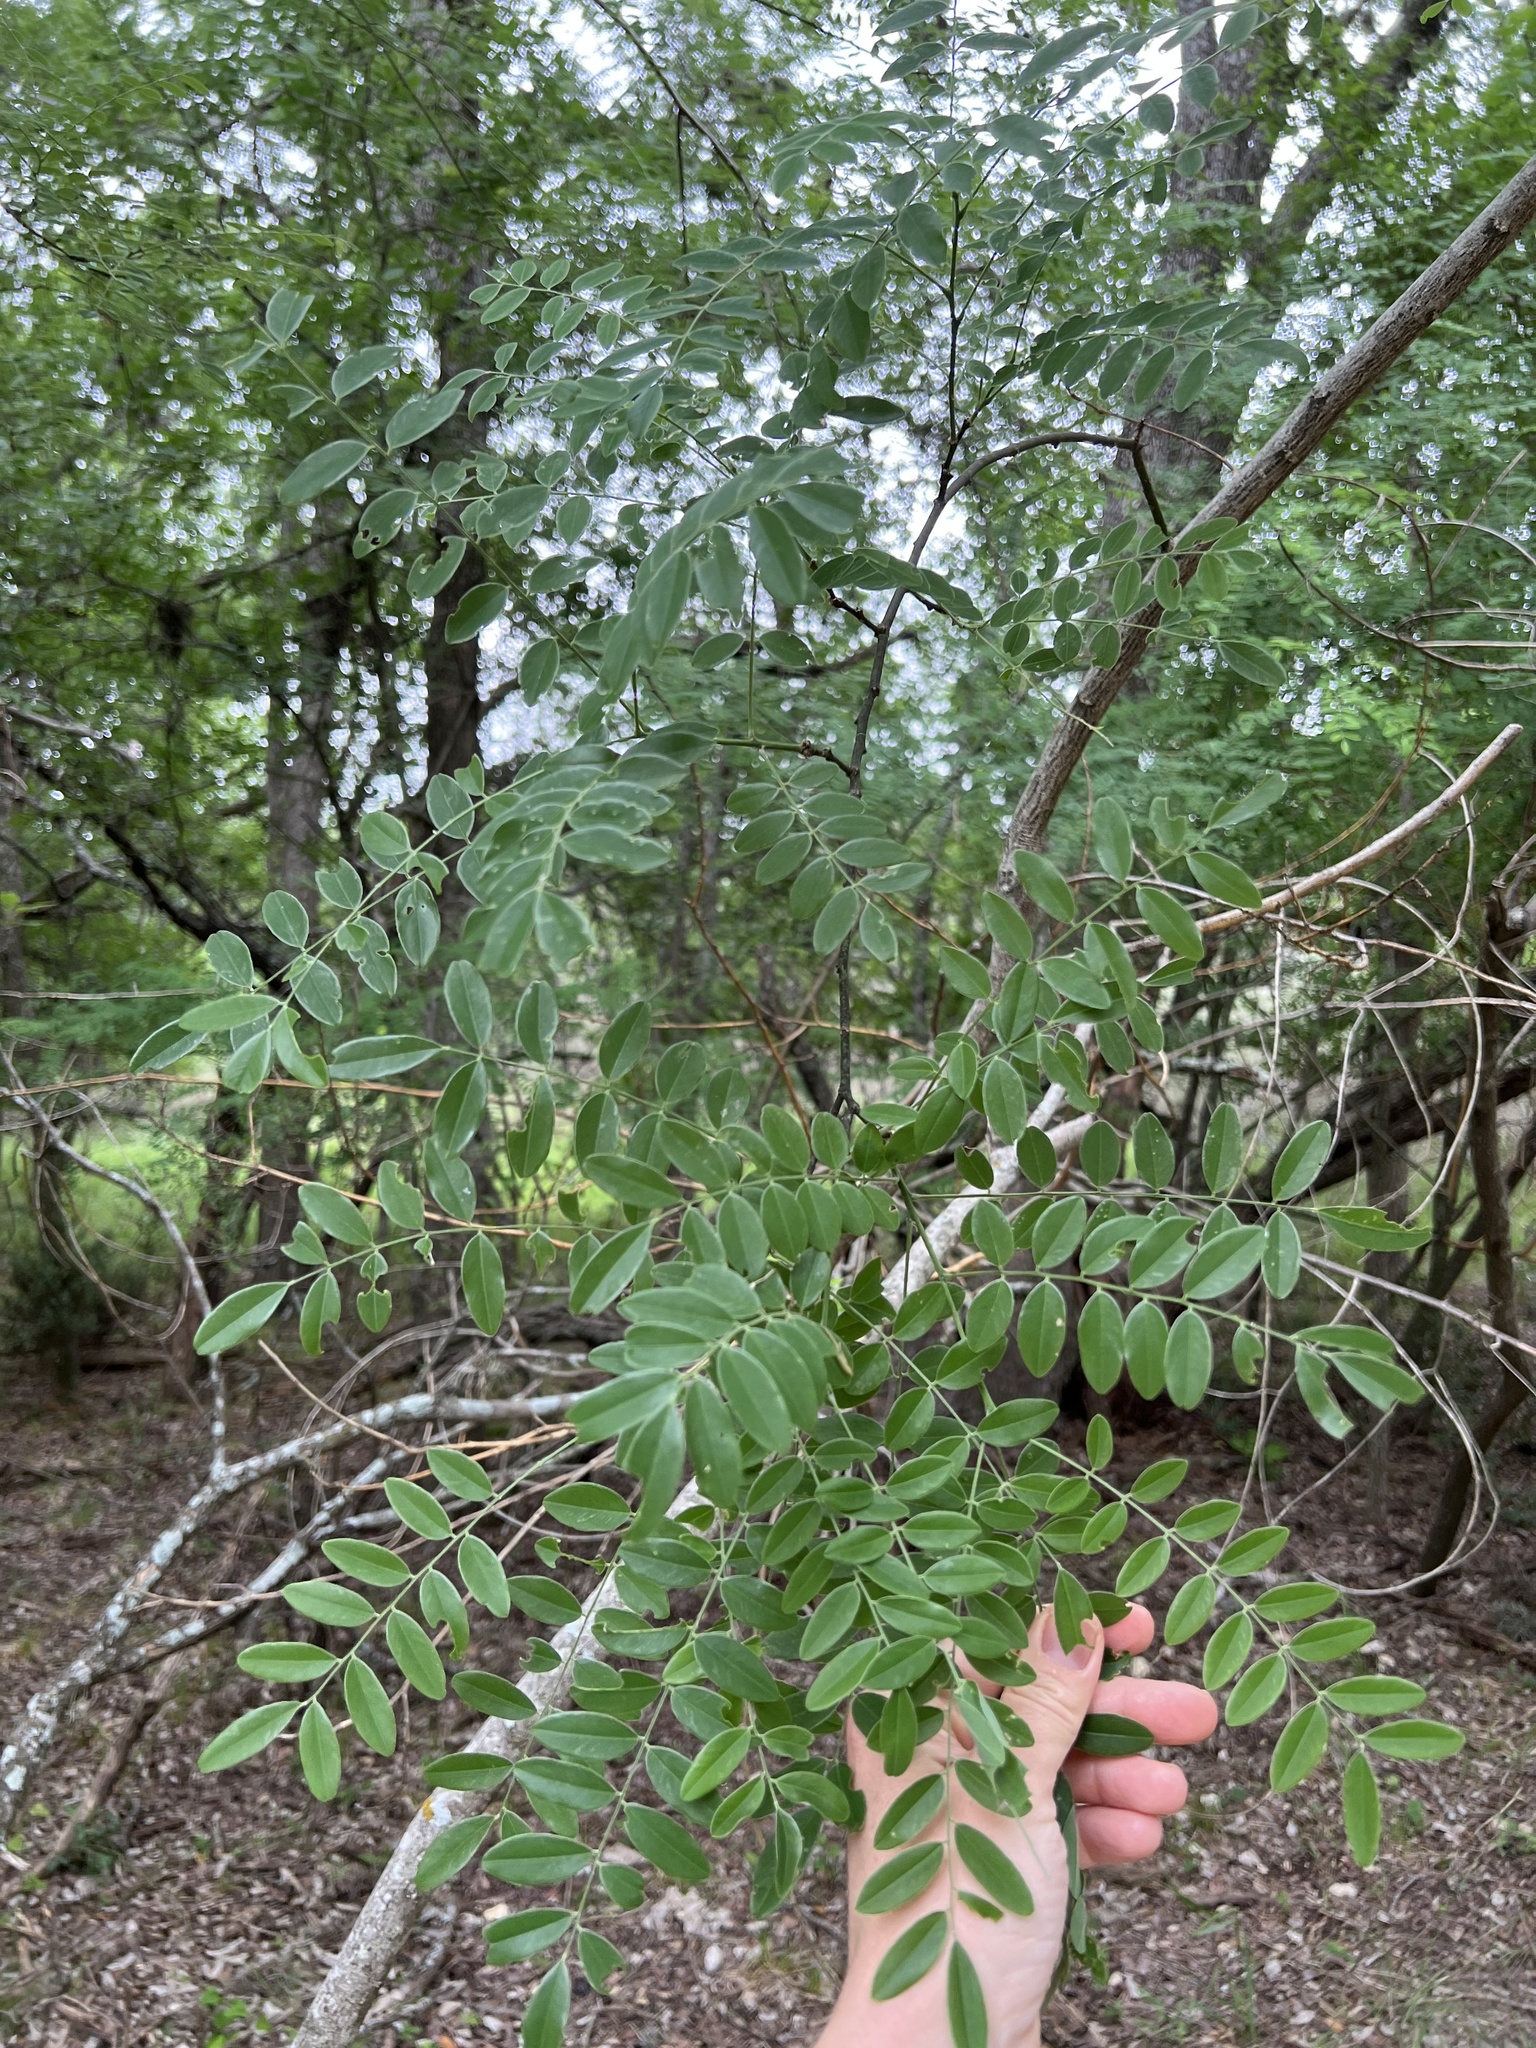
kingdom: Plantae
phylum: Tracheophyta
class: Magnoliopsida
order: Fabales
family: Fabaceae
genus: Styphnolobium
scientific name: Styphnolobium affine
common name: Texas sophora
